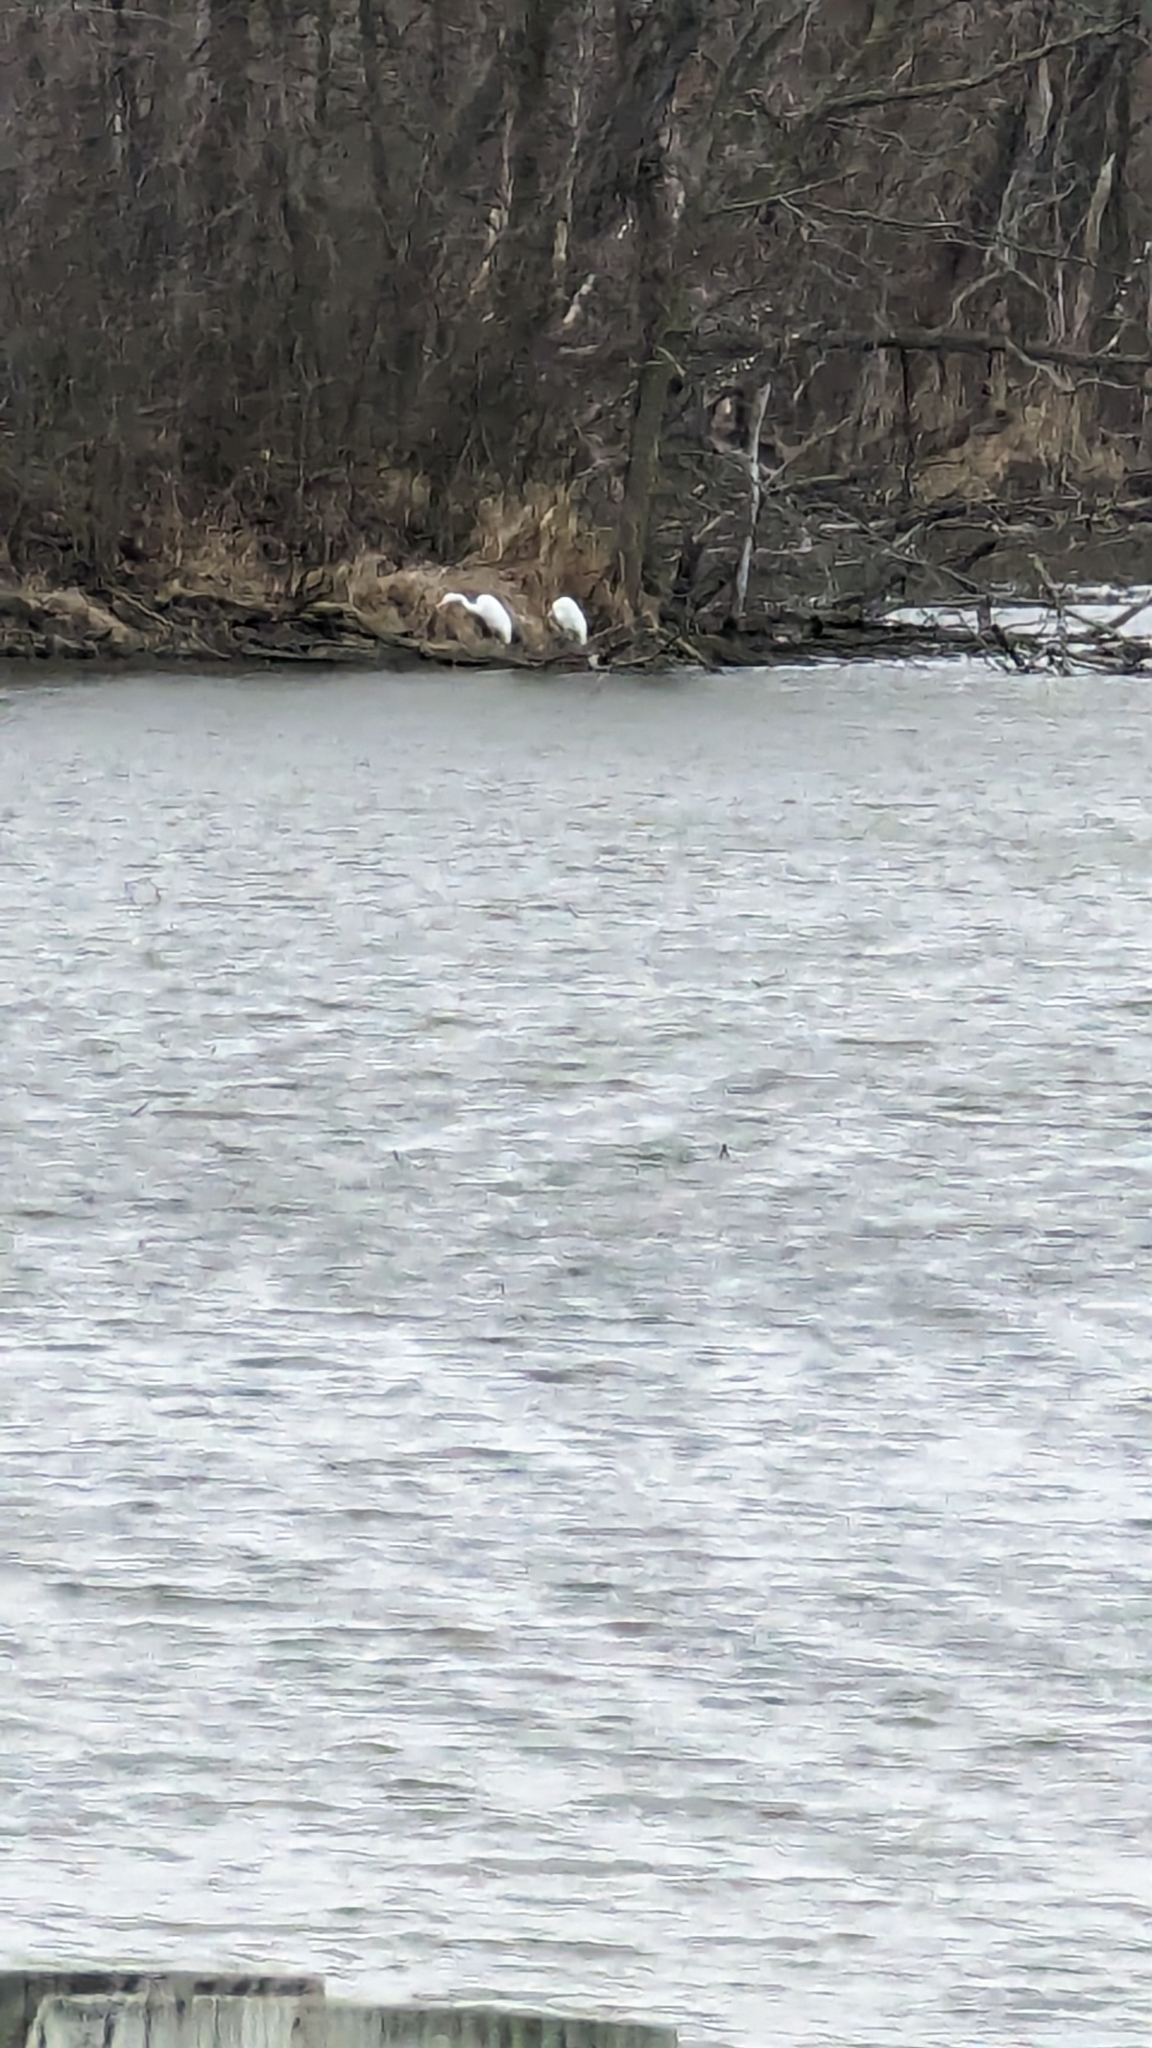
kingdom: Animalia
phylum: Chordata
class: Aves
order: Pelecaniformes
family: Ardeidae
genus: Ardea
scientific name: Ardea alba
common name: Great egret
